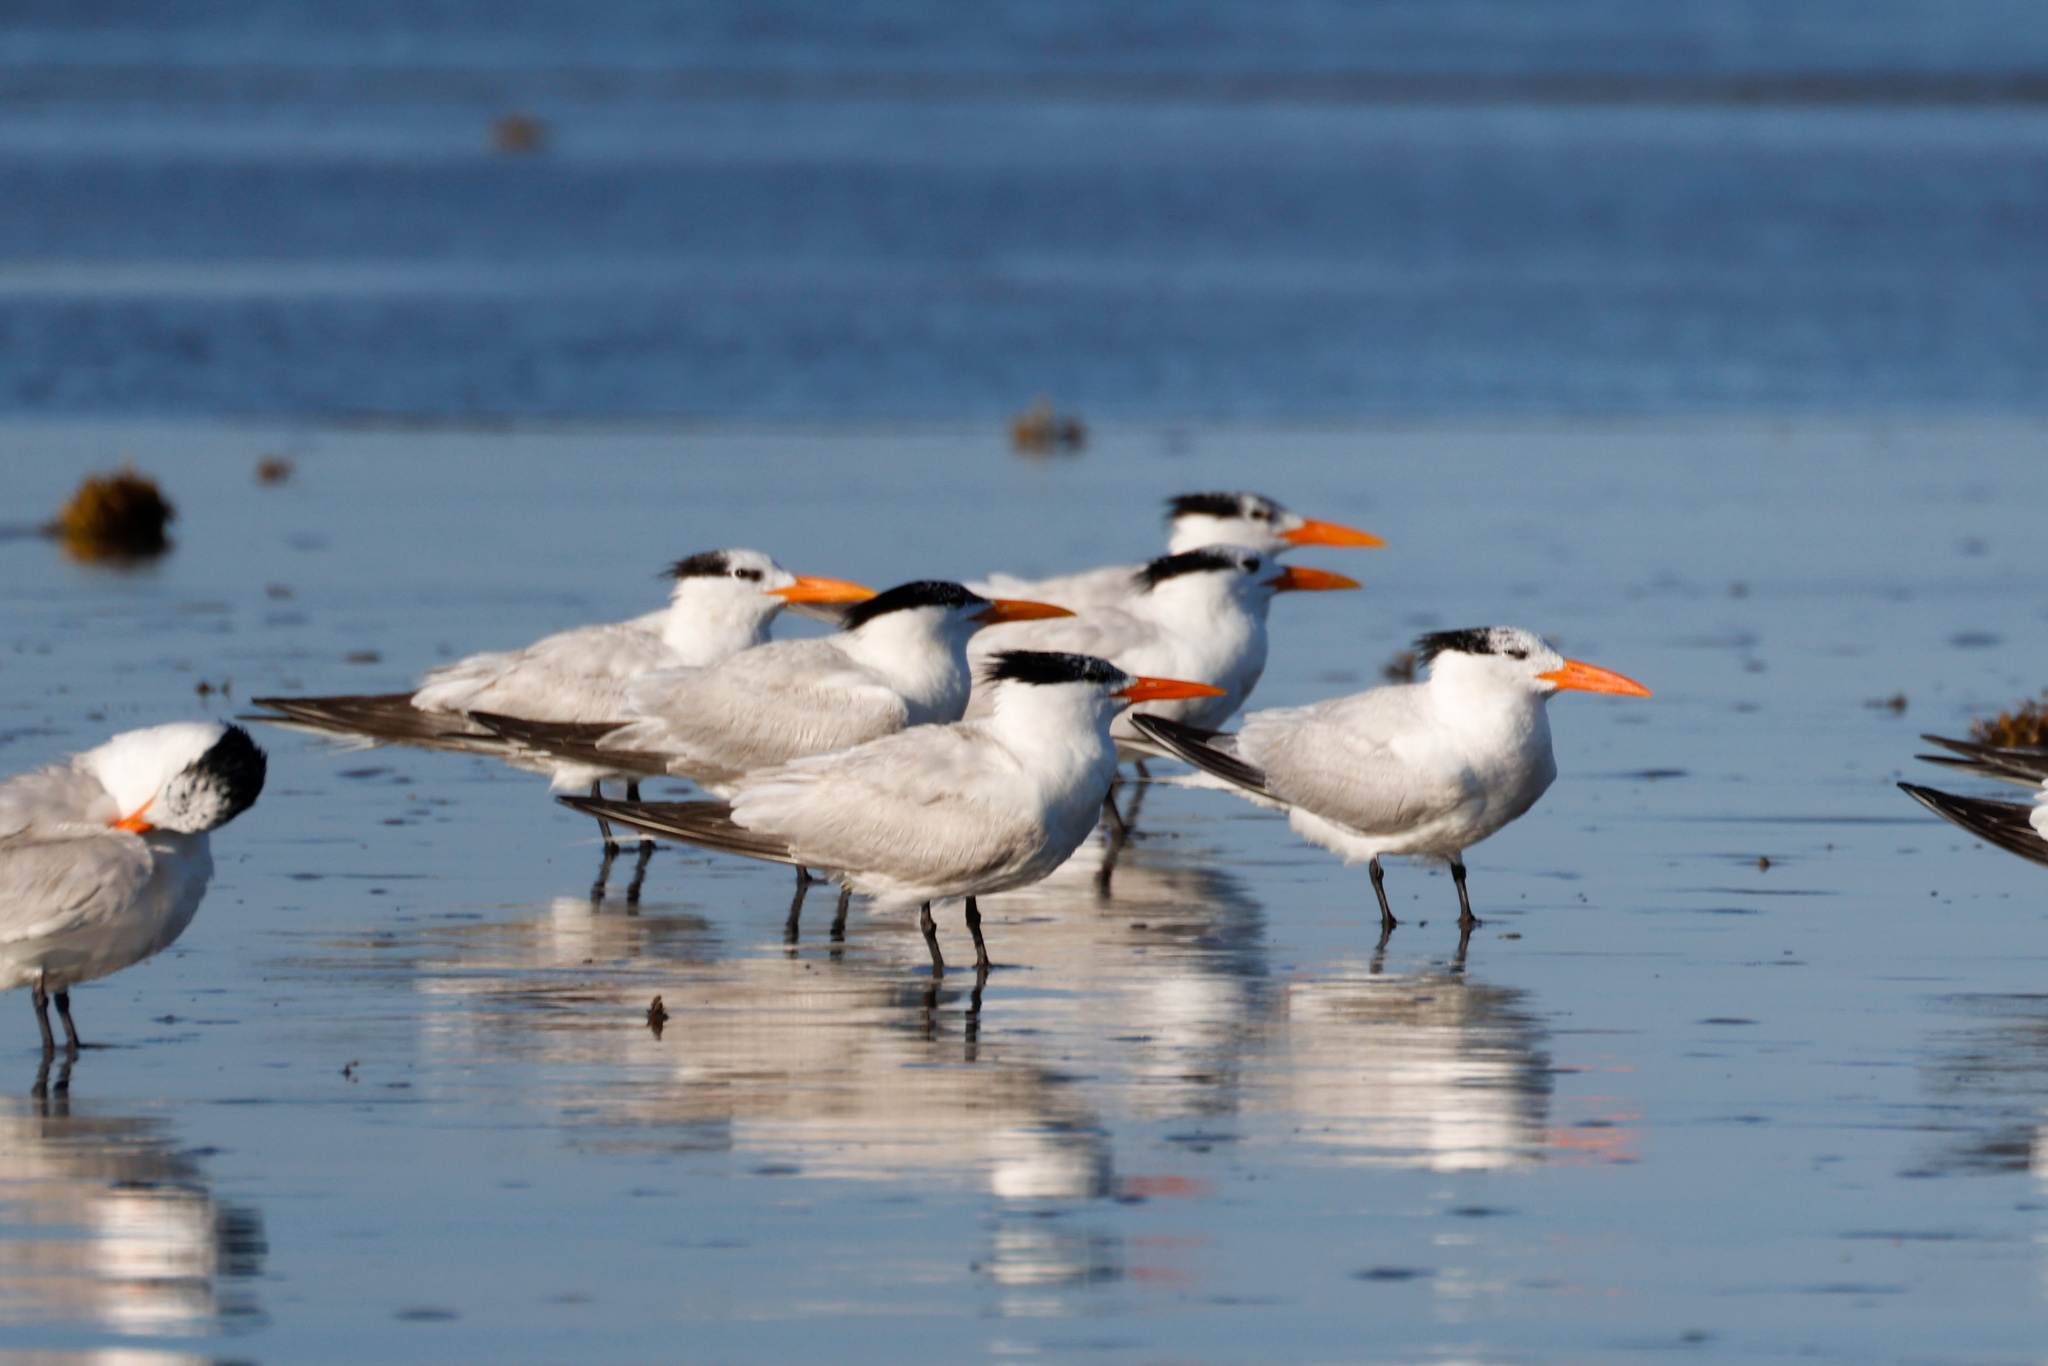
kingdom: Animalia
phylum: Chordata
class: Aves
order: Charadriiformes
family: Laridae
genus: Thalasseus
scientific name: Thalasseus maximus
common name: Royal tern
